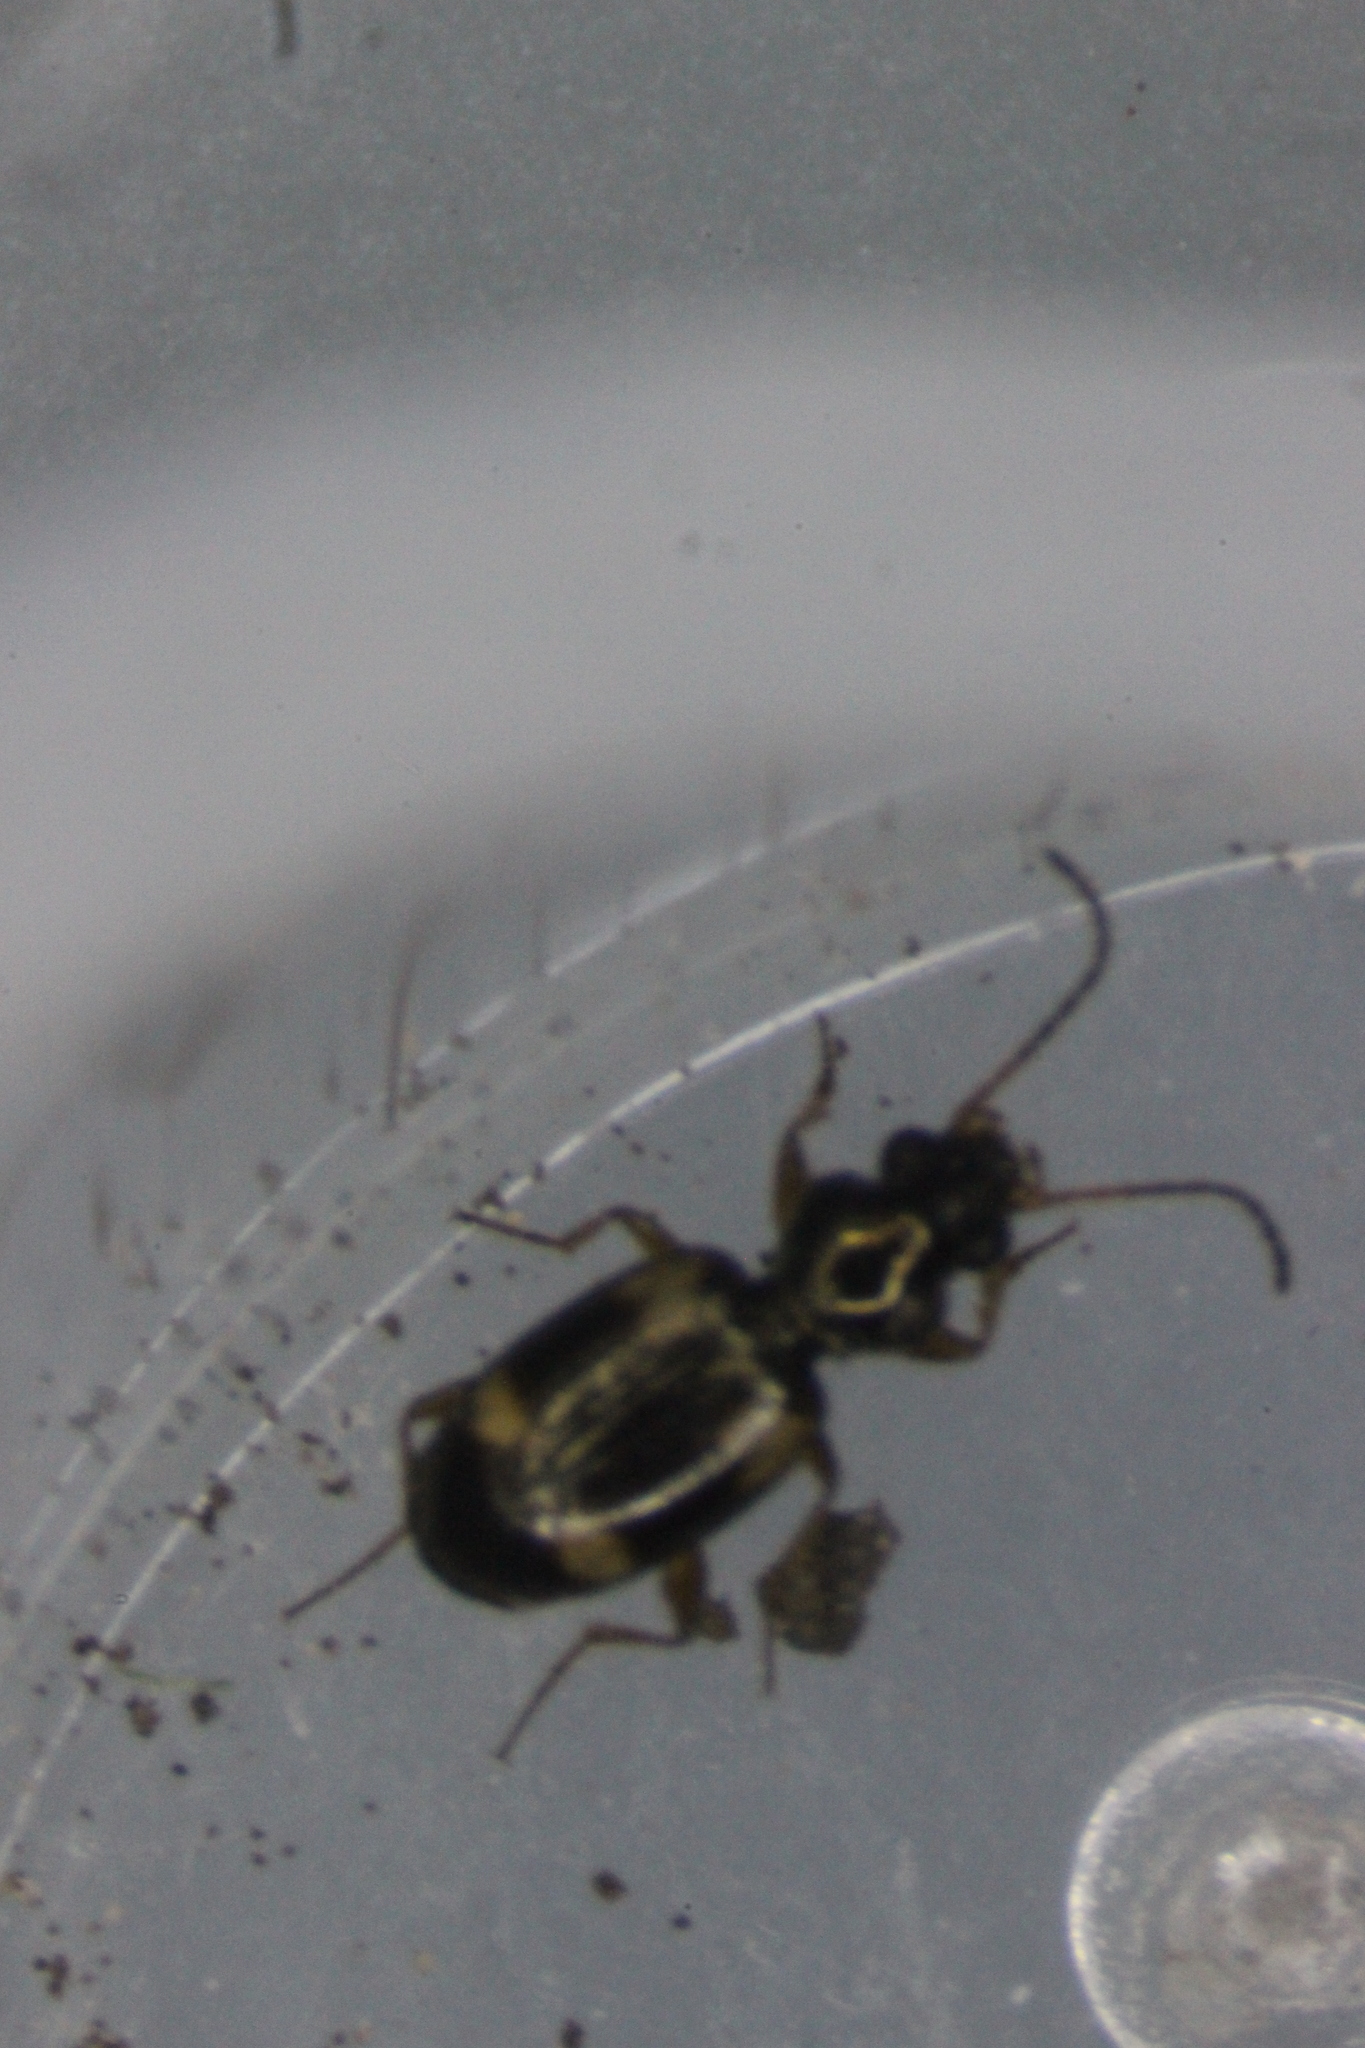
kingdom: Animalia
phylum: Arthropoda
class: Insecta
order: Coleoptera
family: Carabidae
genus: Bembidion
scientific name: Bembidion quadrimaculatum
